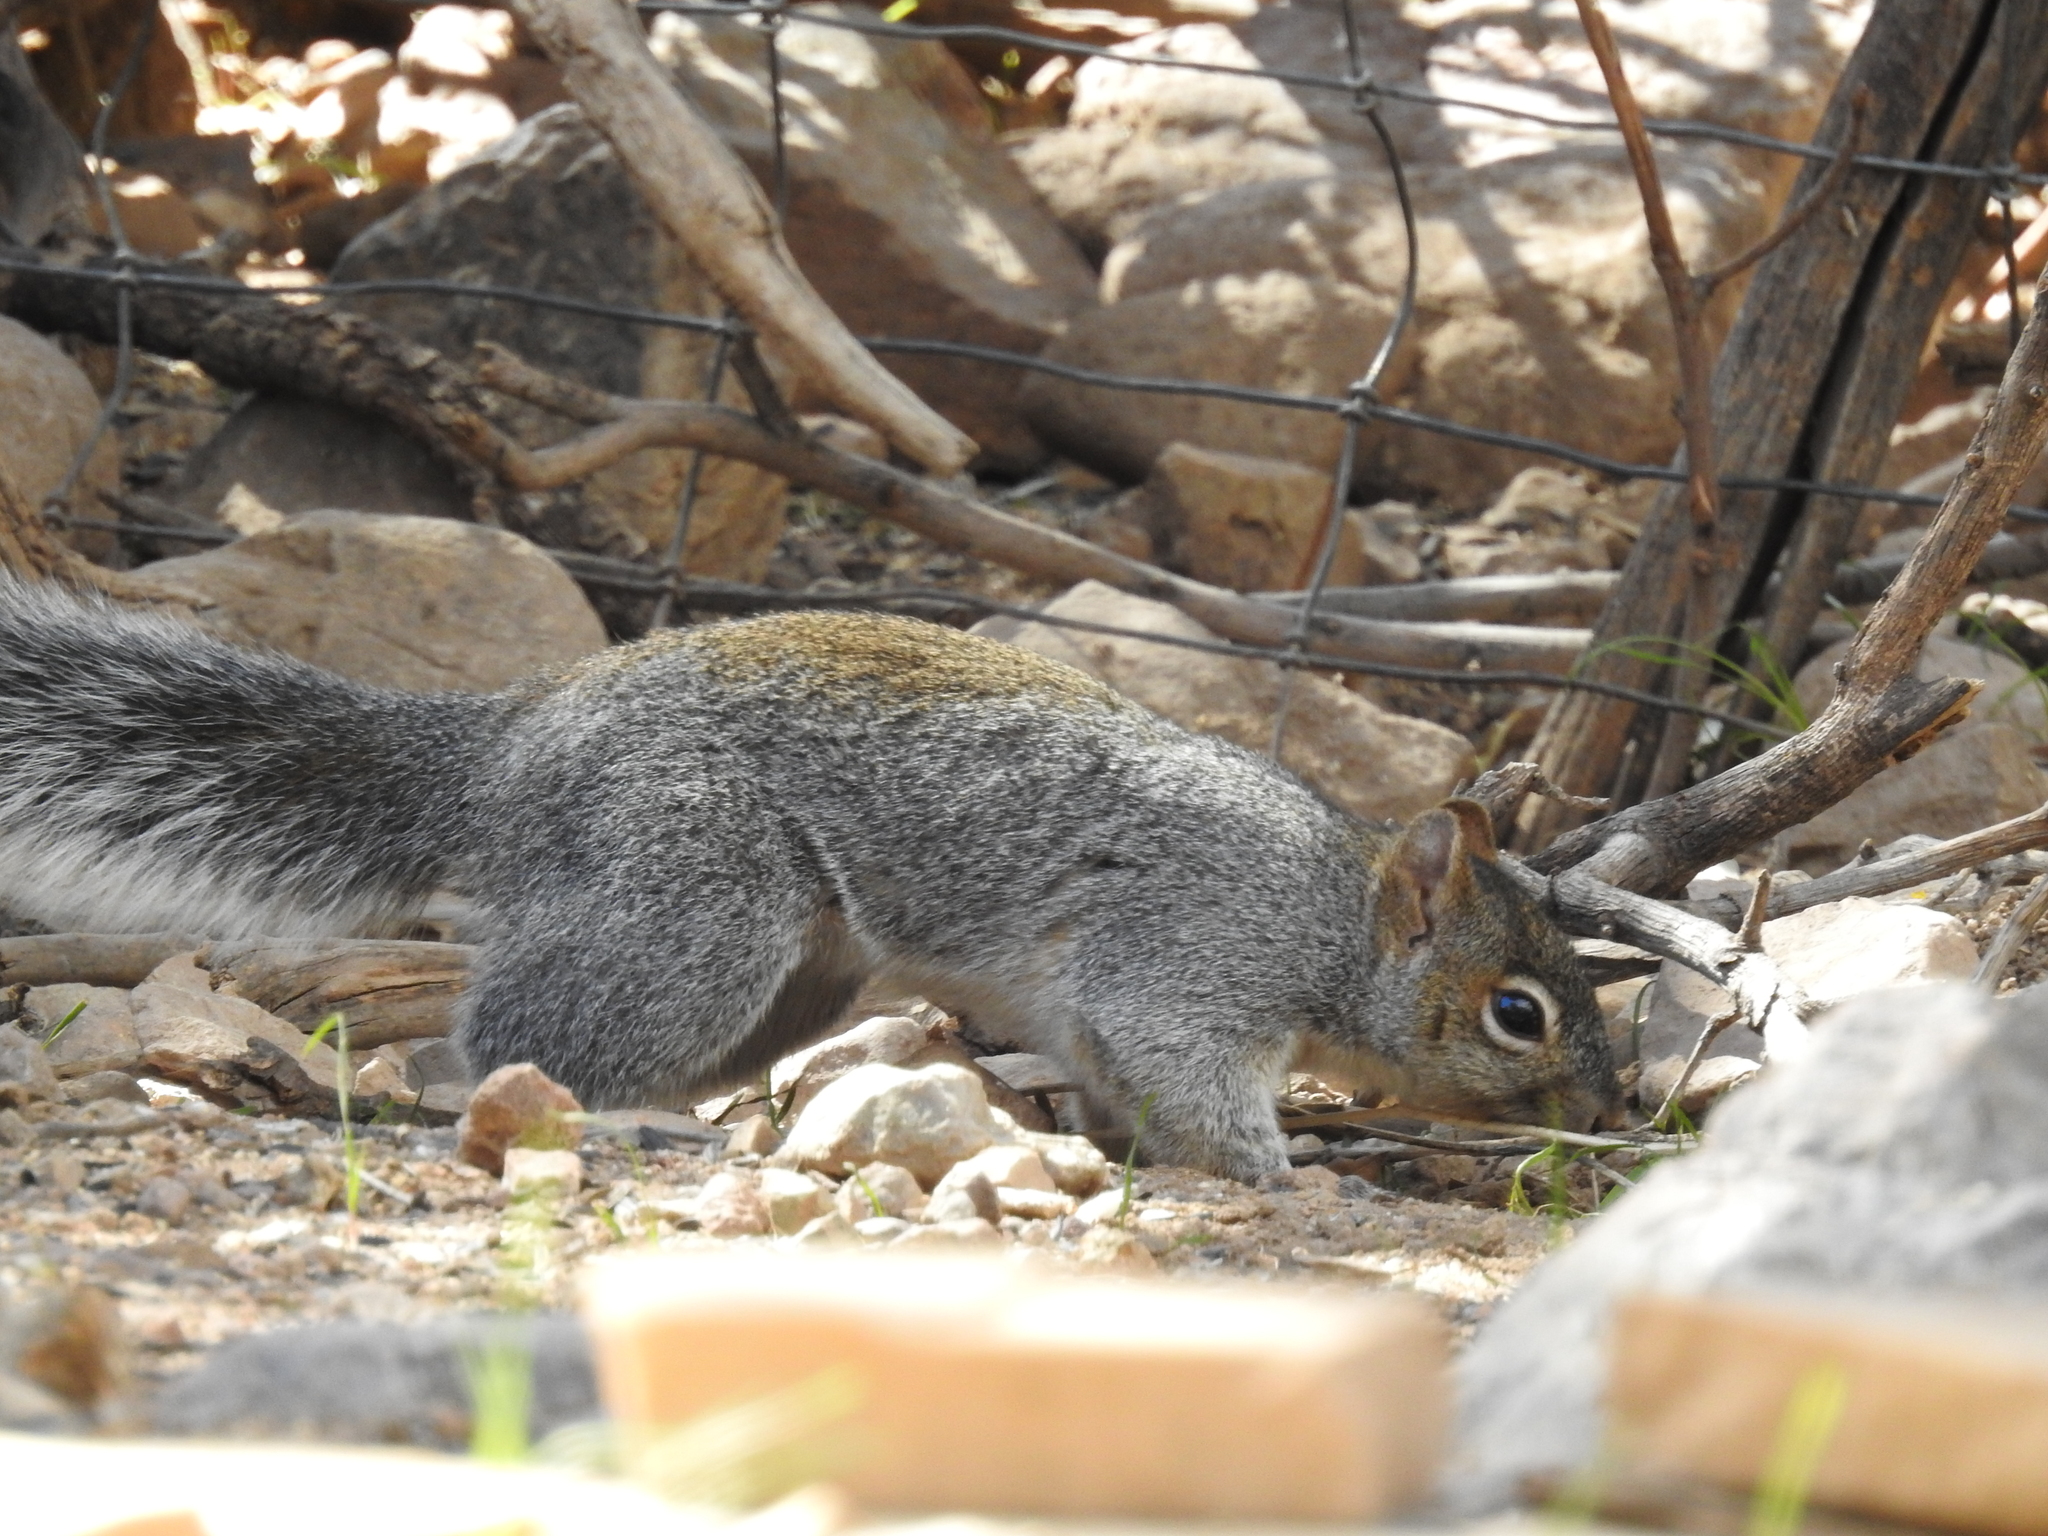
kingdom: Animalia
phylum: Chordata
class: Mammalia
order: Rodentia
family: Sciuridae
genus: Sciurus
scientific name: Sciurus arizonensis
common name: Arizona gray squirrel
